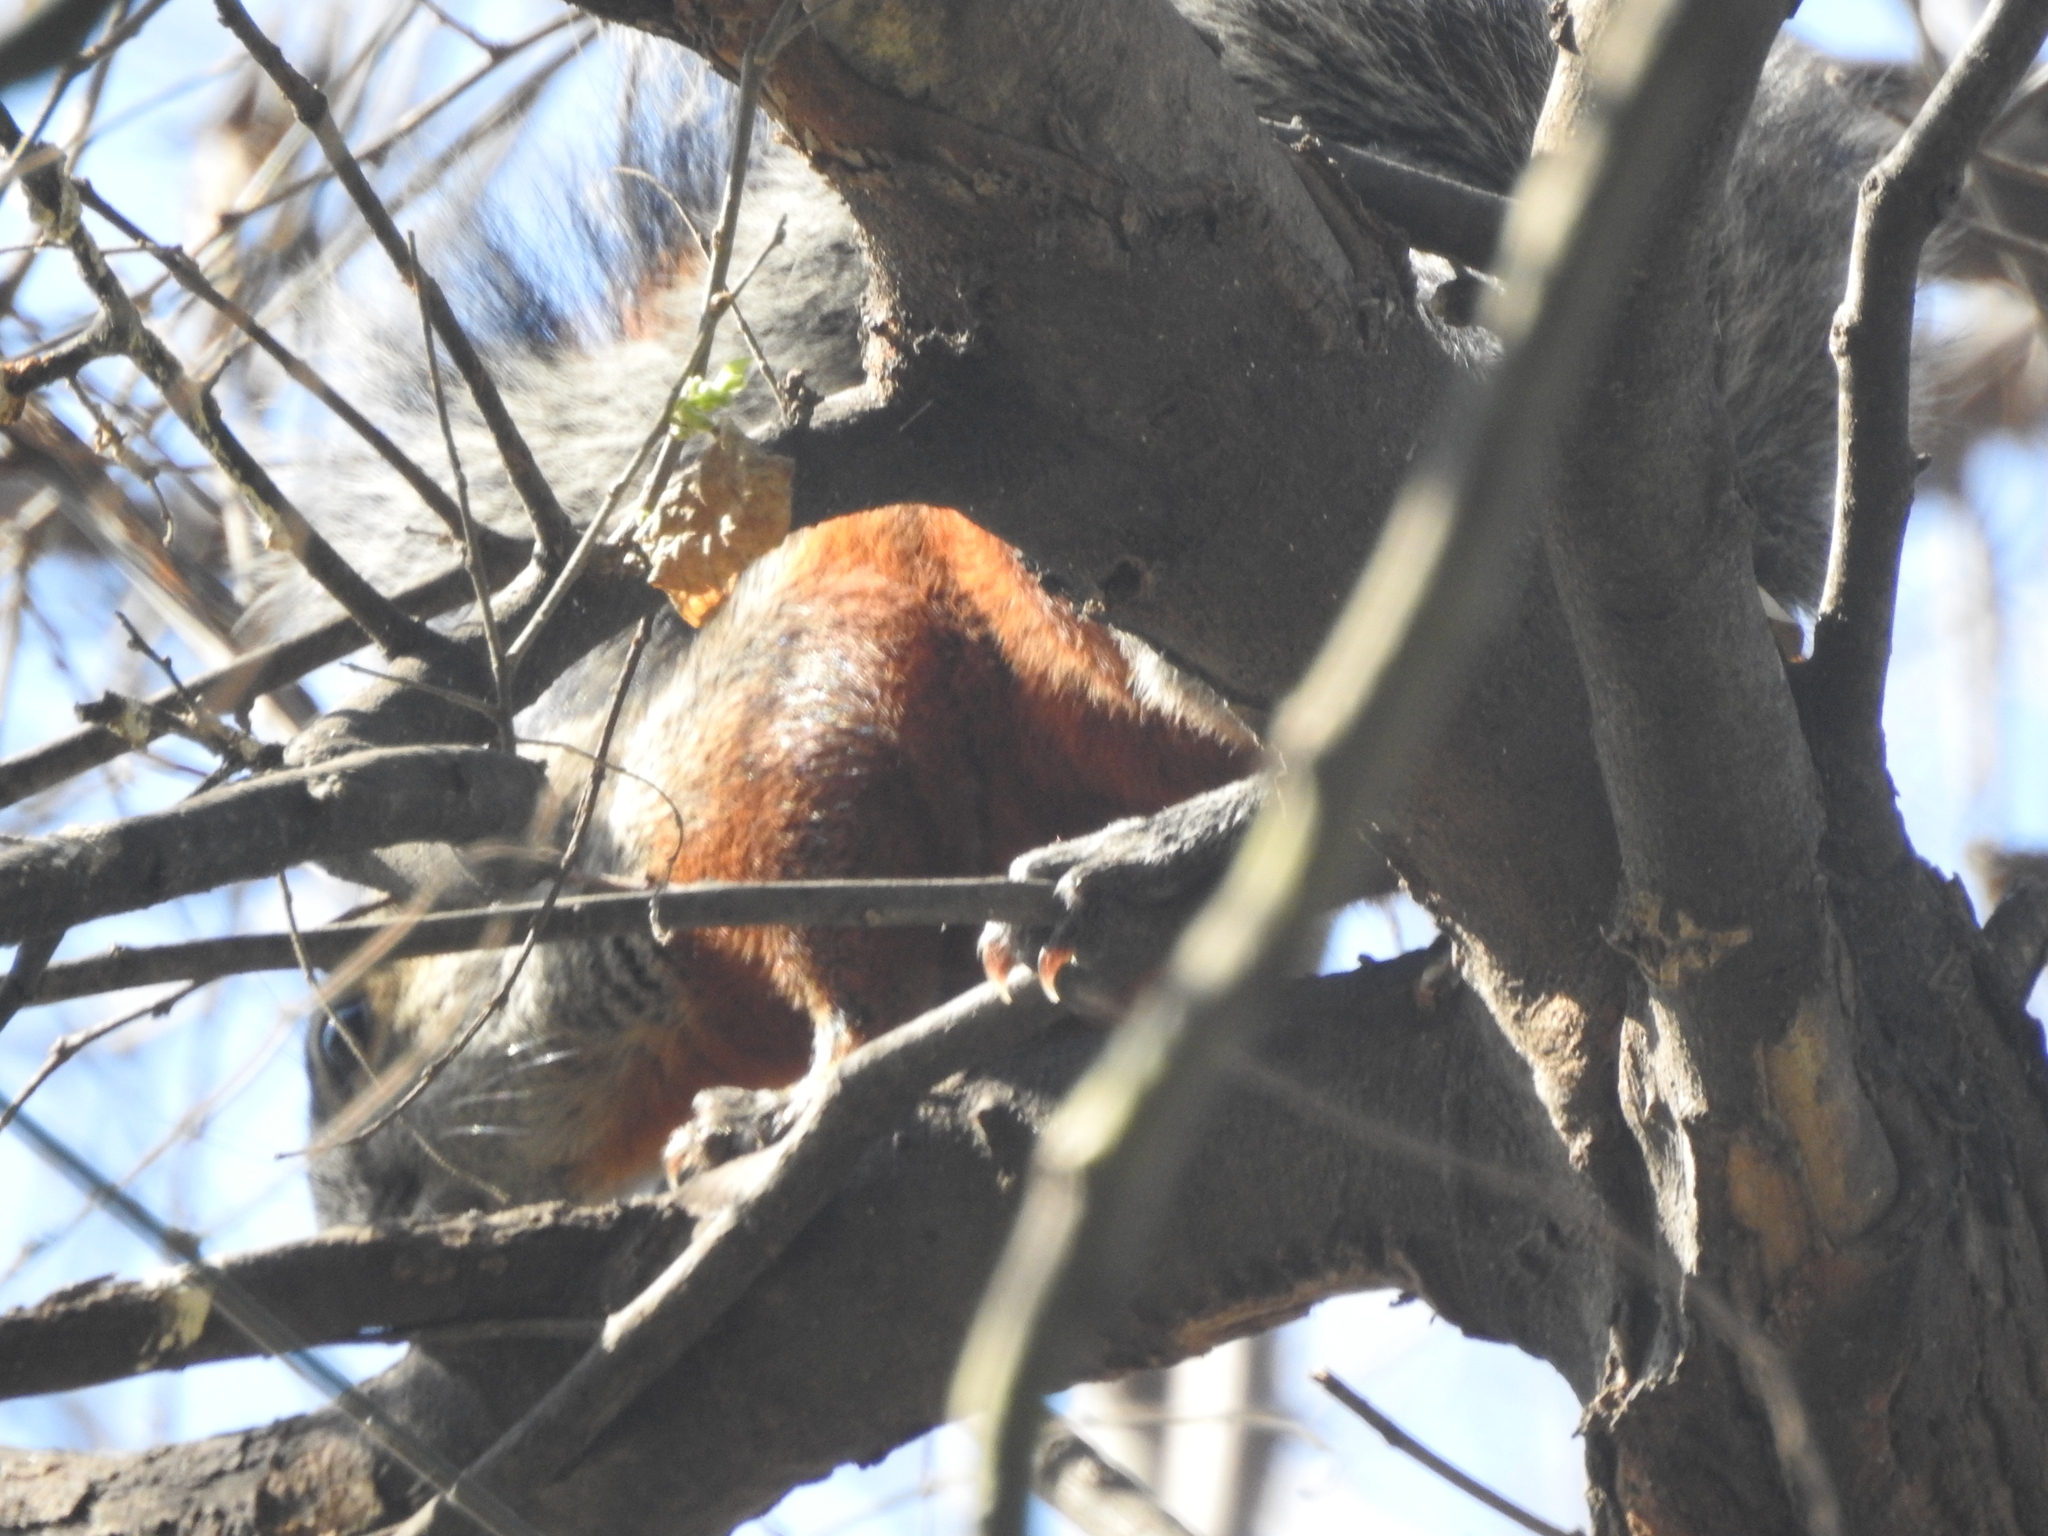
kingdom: Animalia
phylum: Chordata
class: Mammalia
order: Rodentia
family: Sciuridae
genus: Sciurus
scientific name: Sciurus aureogaster
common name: Red-bellied squirrel
